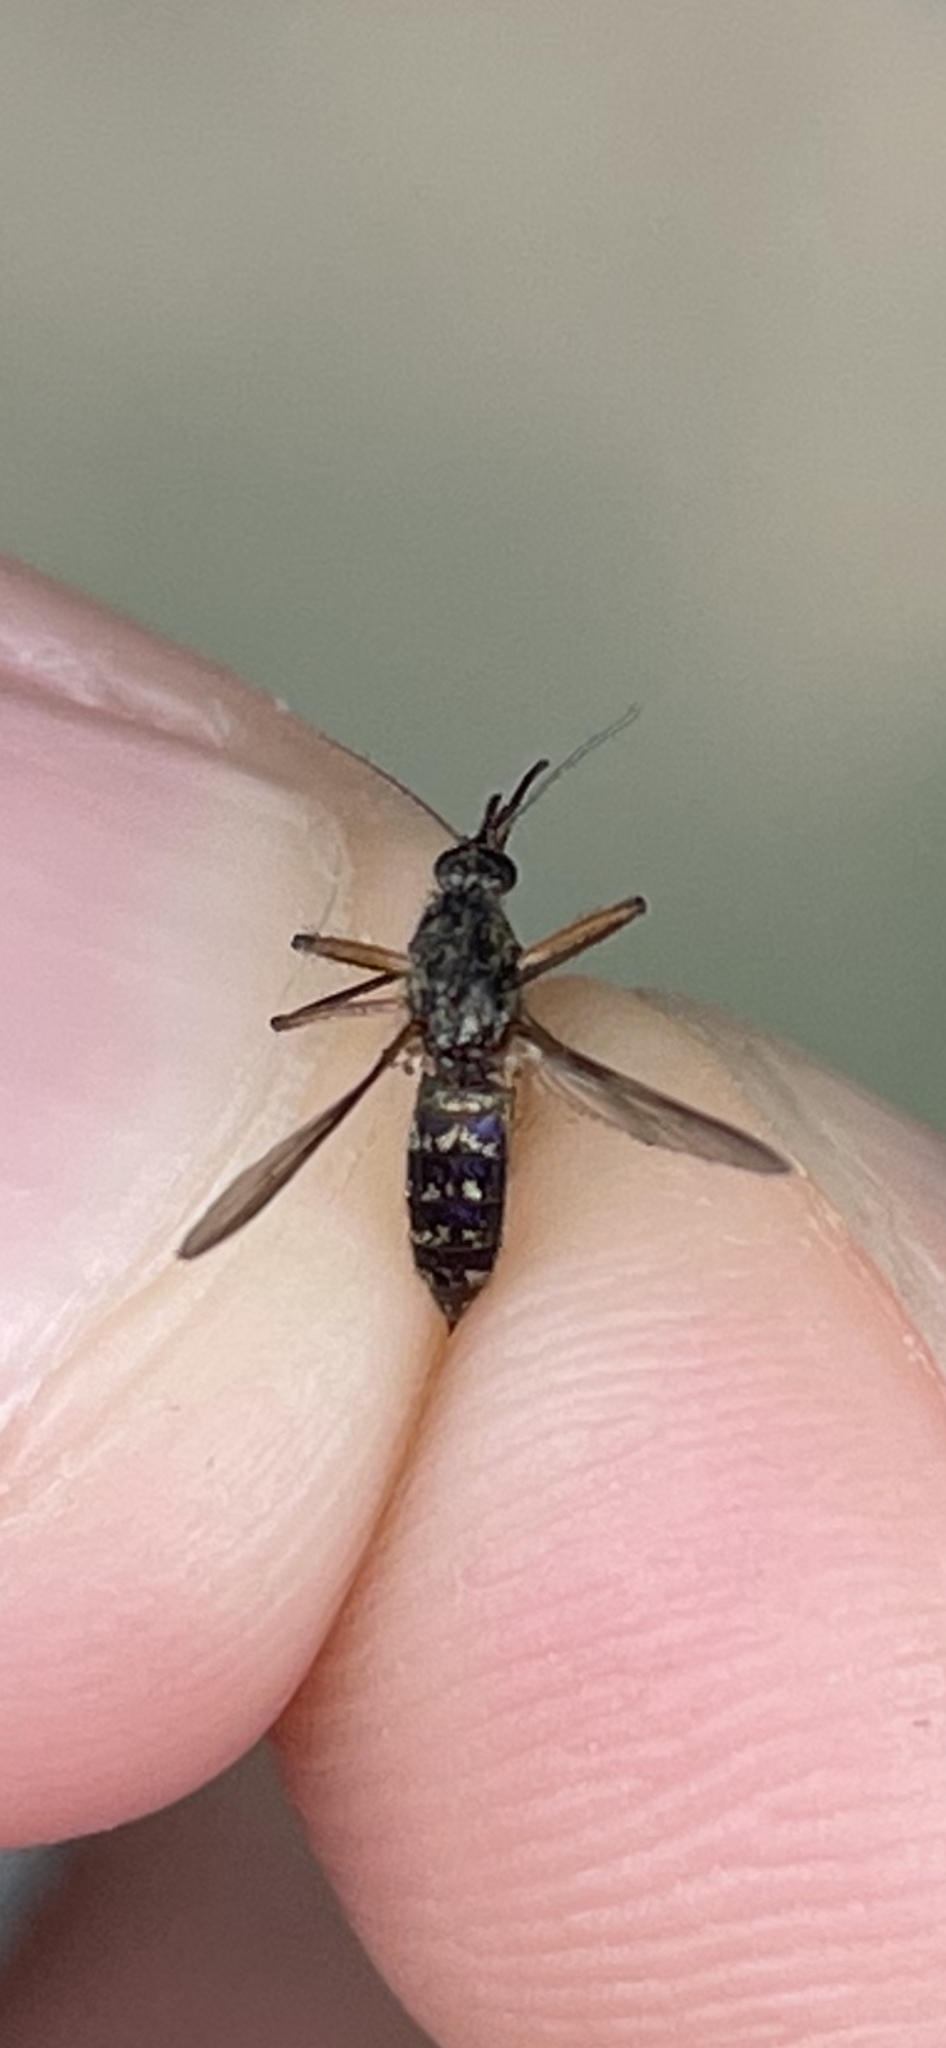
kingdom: Animalia
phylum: Arthropoda
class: Insecta
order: Diptera
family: Culicidae
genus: Psorophora
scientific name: Psorophora cyanescens
